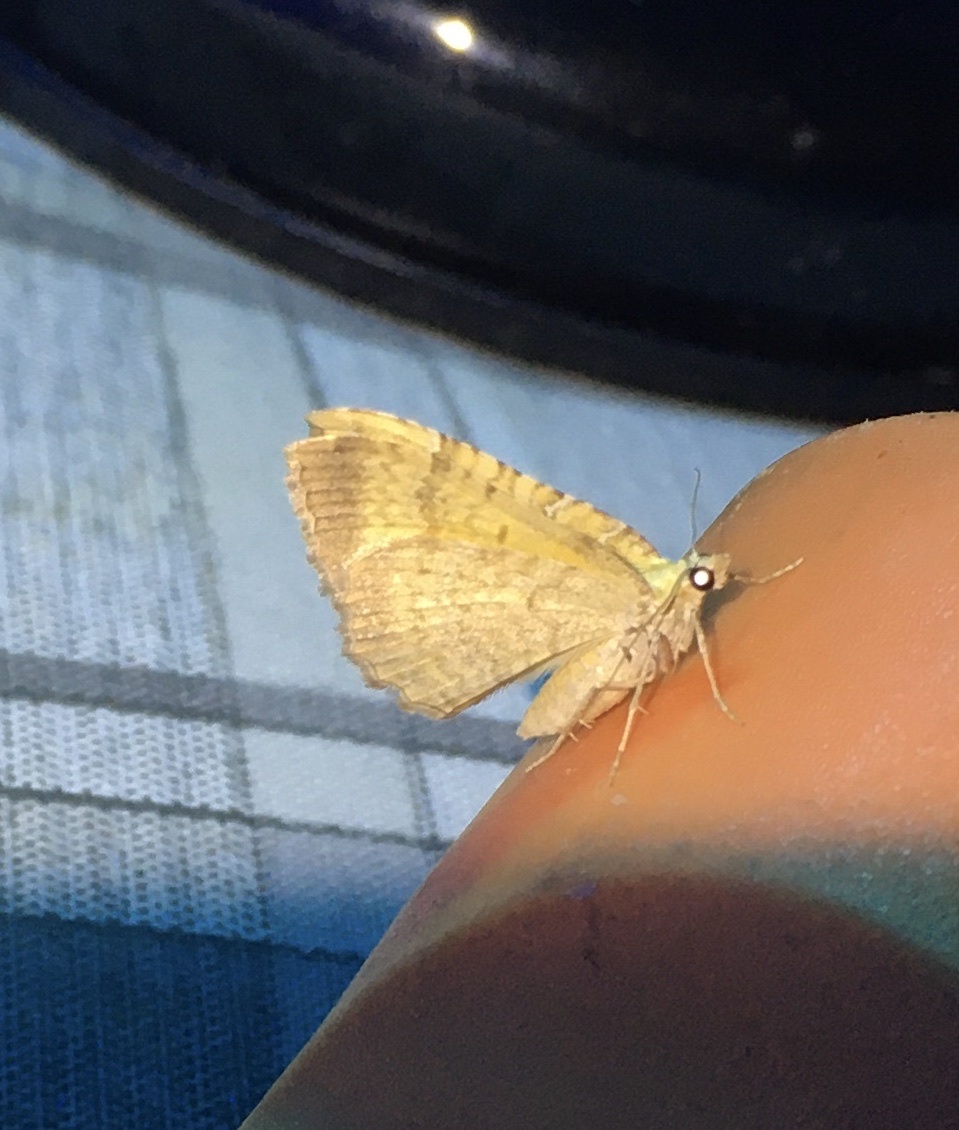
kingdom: Animalia
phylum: Arthropoda
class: Insecta
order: Lepidoptera
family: Geometridae
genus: Camptogramma
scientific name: Camptogramma bilineata
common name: Yellow shell
